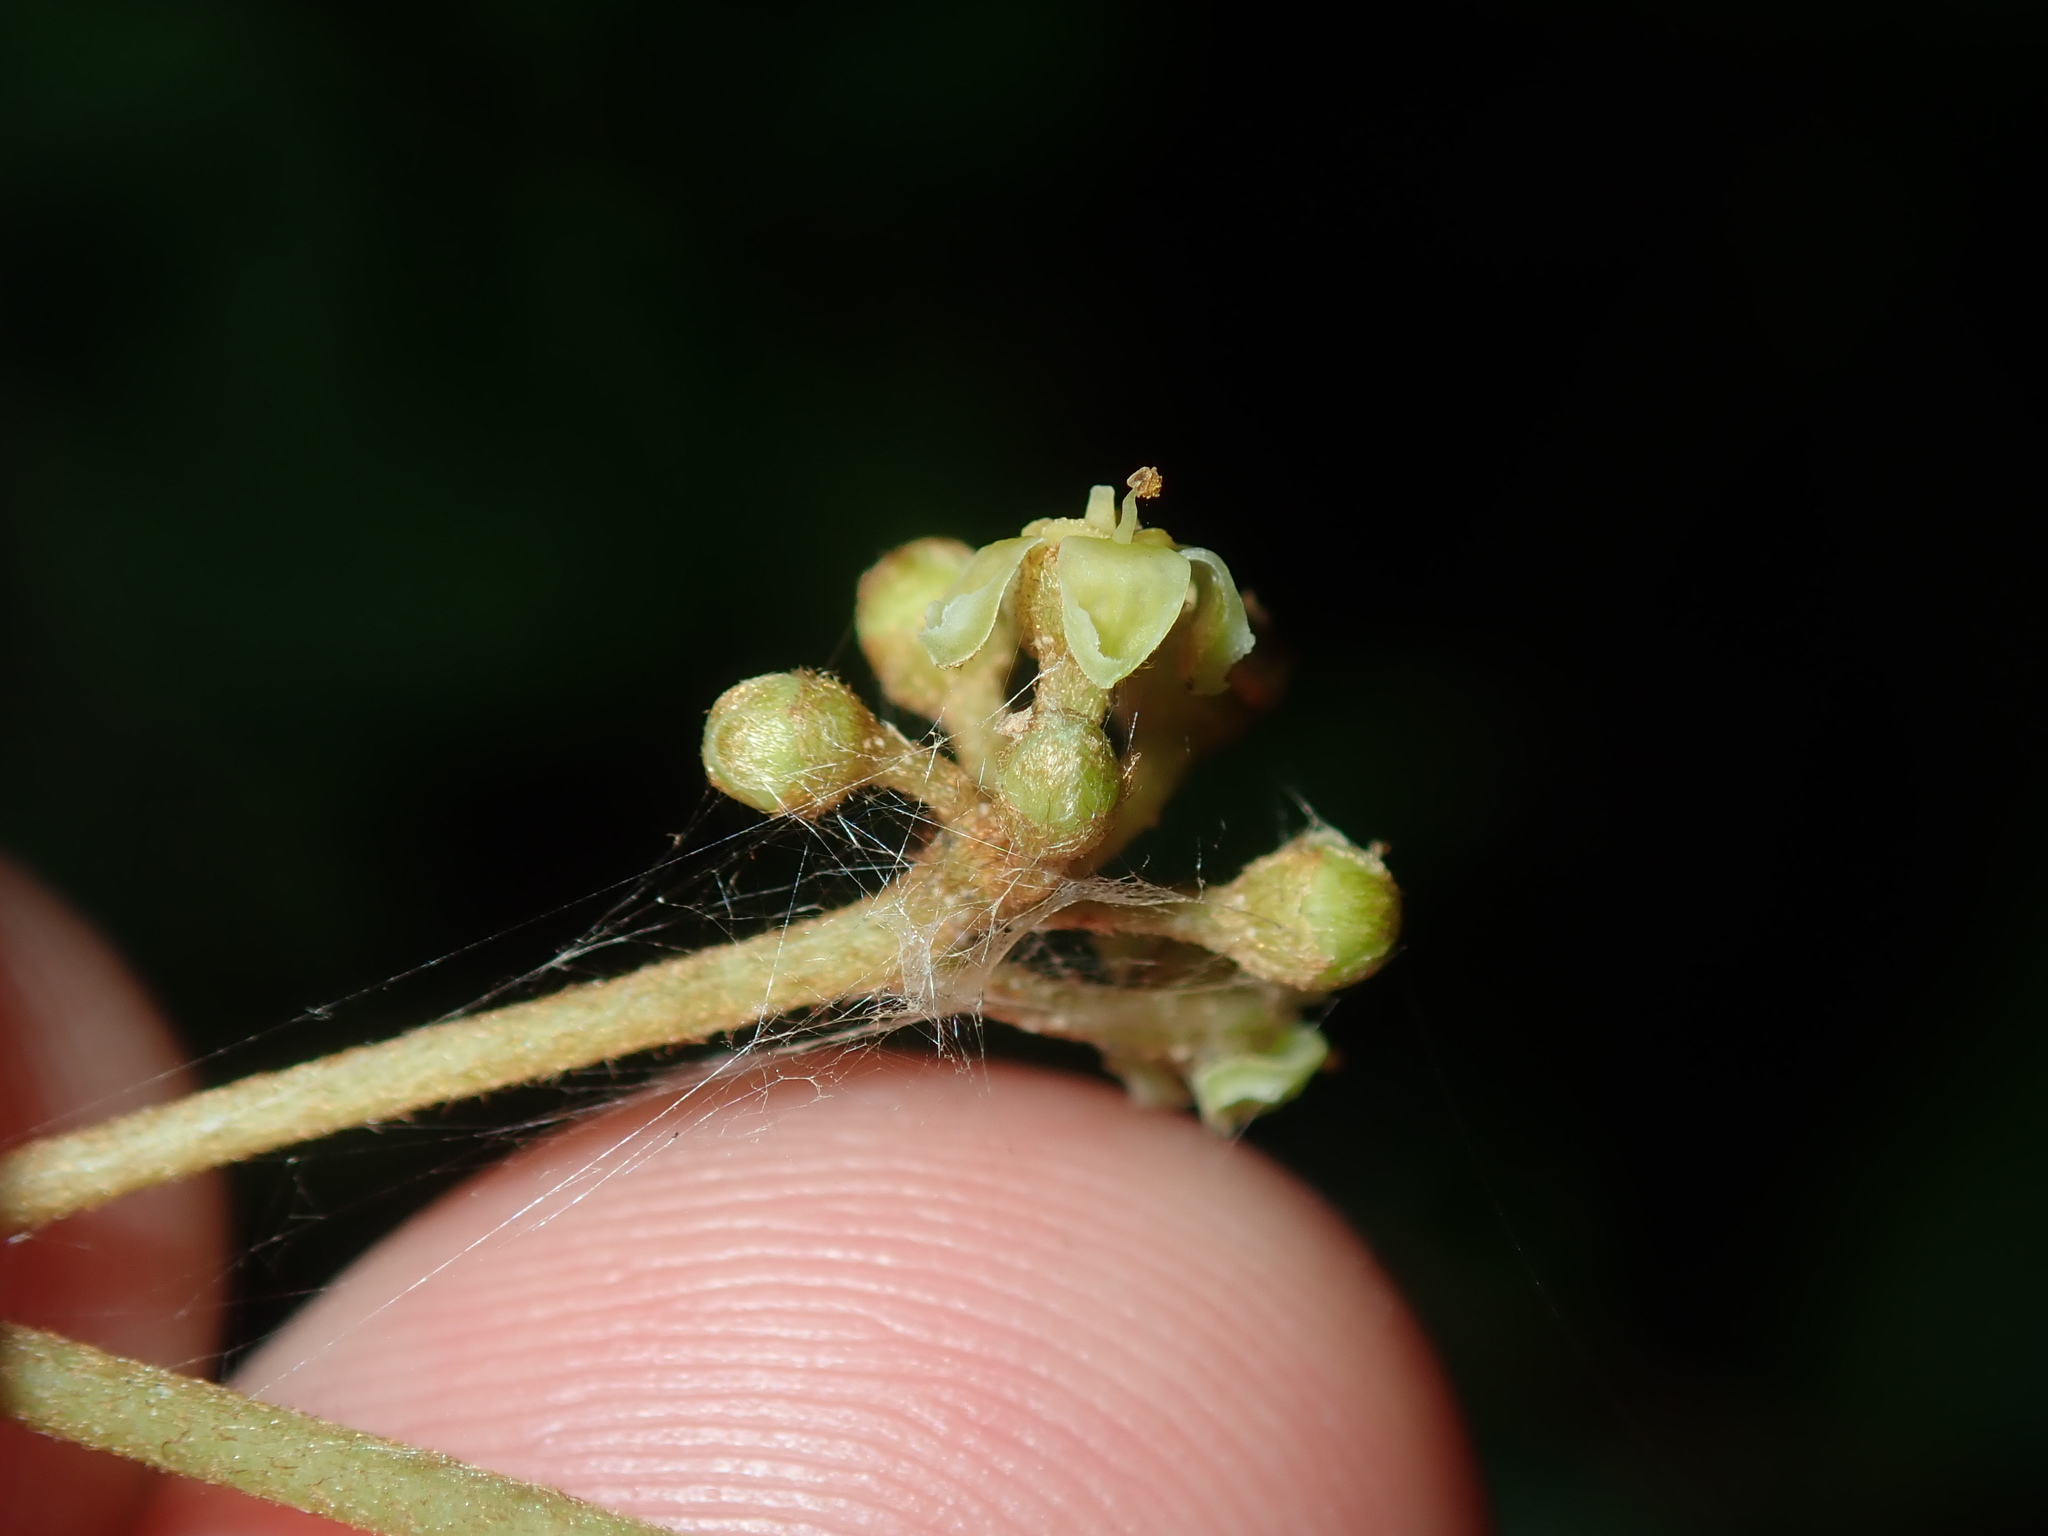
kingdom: Plantae
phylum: Tracheophyta
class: Magnoliopsida
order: Vitales
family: Vitaceae
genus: Cissus
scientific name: Cissus antarctica
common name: Kangaroo vine
